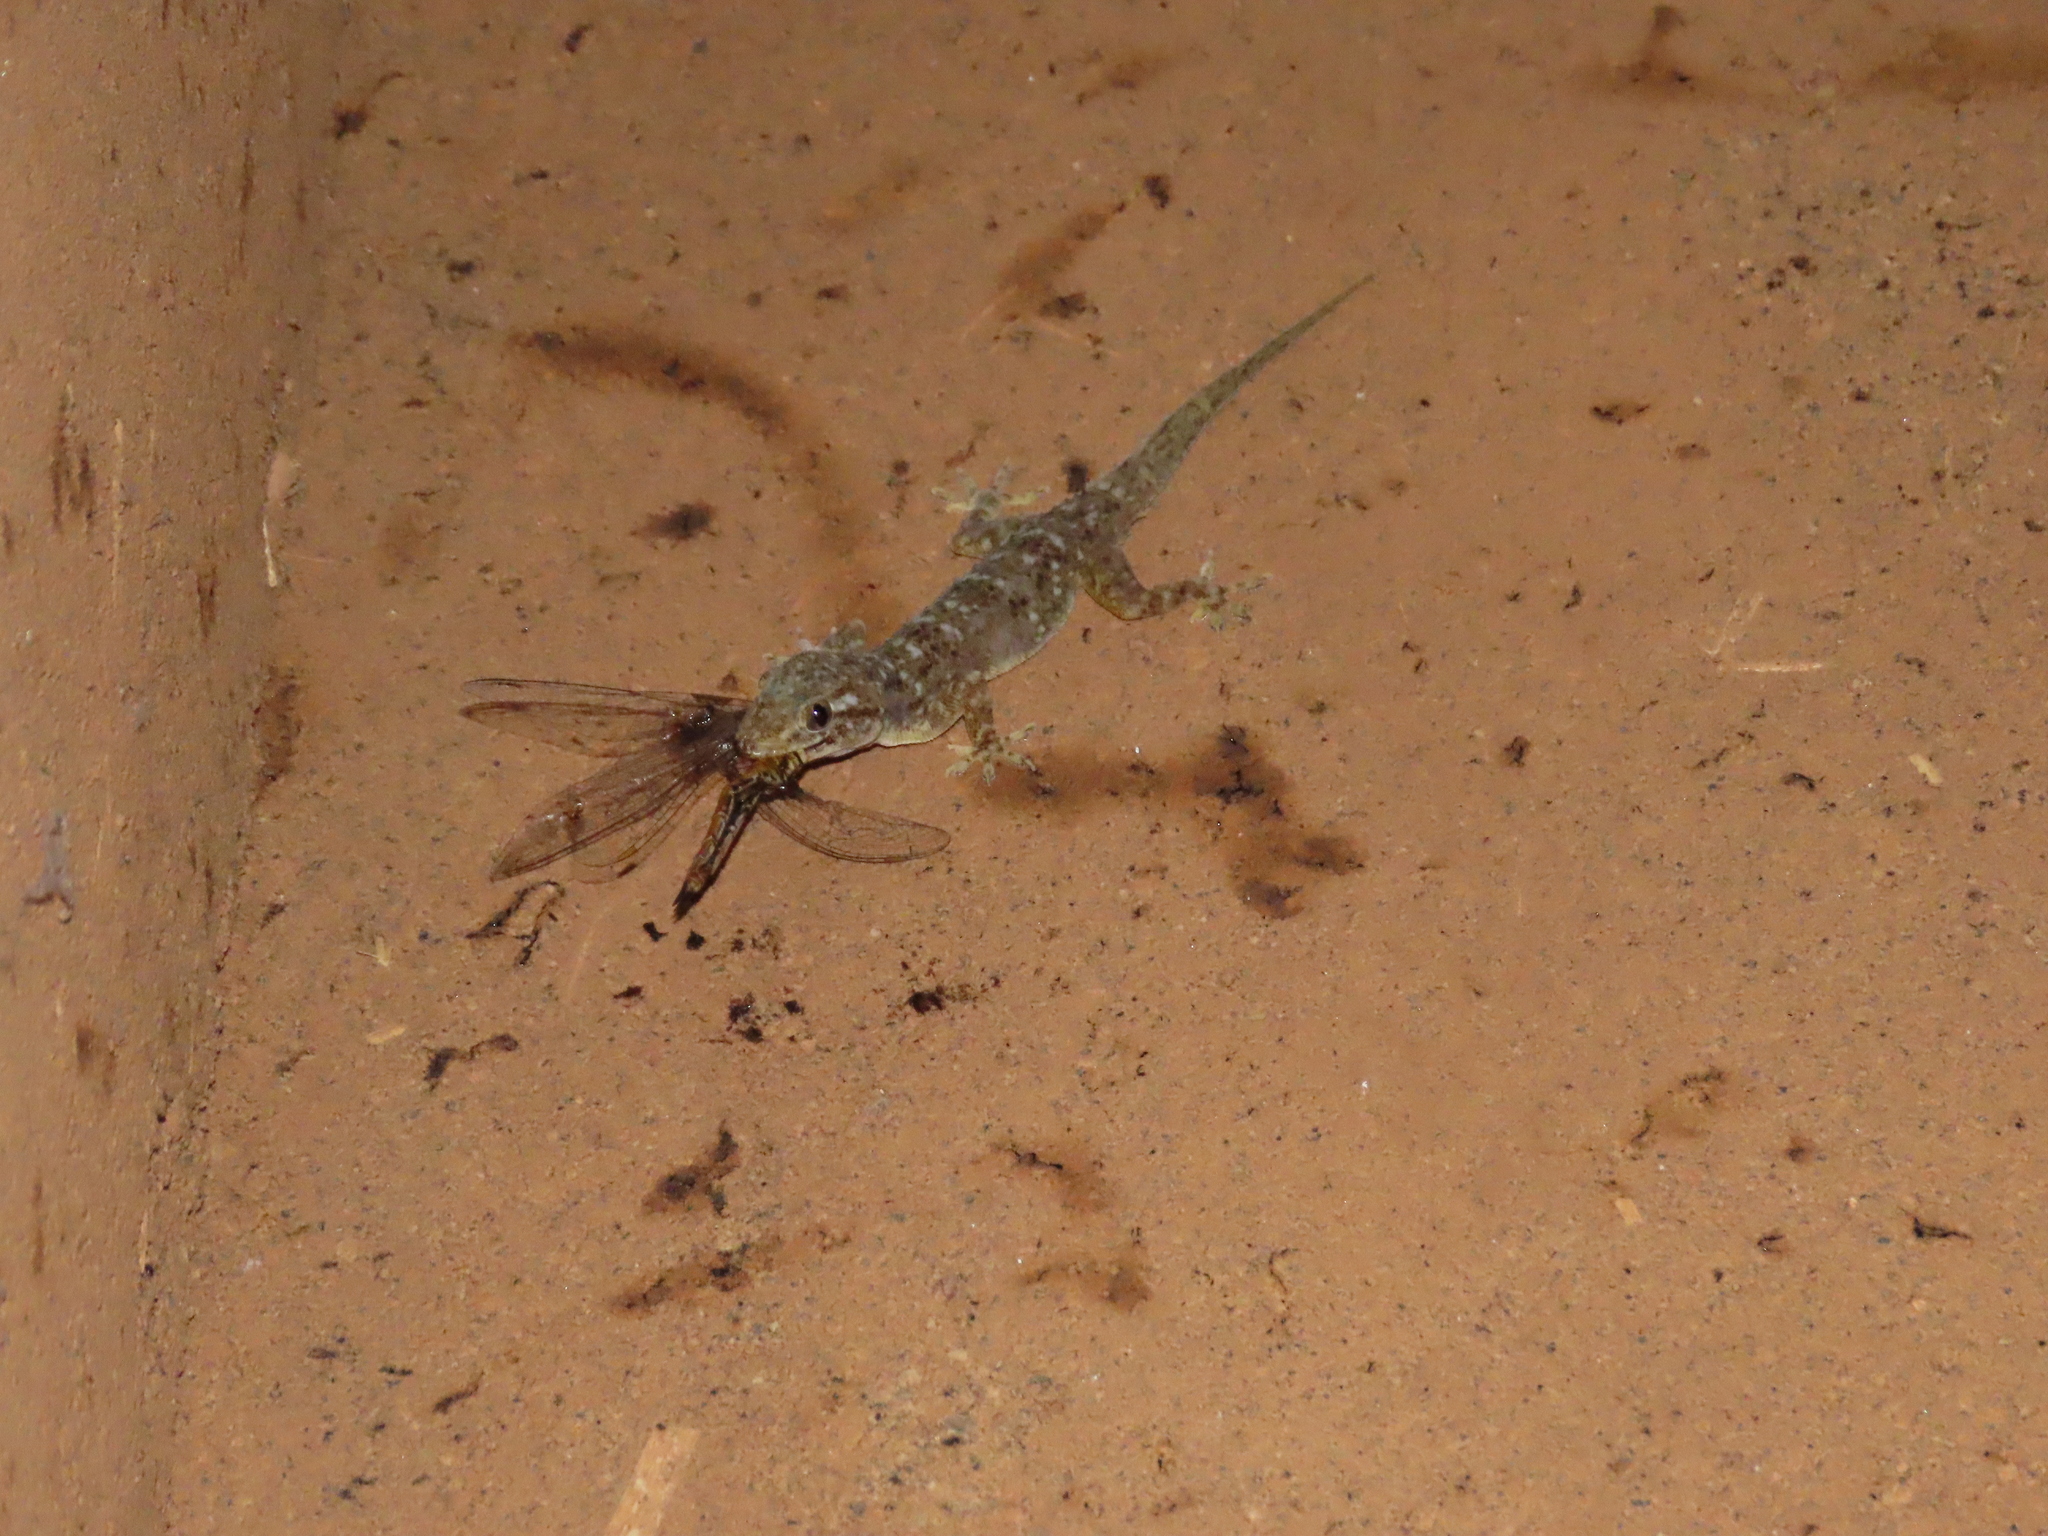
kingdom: Animalia
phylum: Arthropoda
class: Insecta
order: Odonata
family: Libellulidae
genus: Pantala
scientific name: Pantala flavescens
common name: Wandering glider
